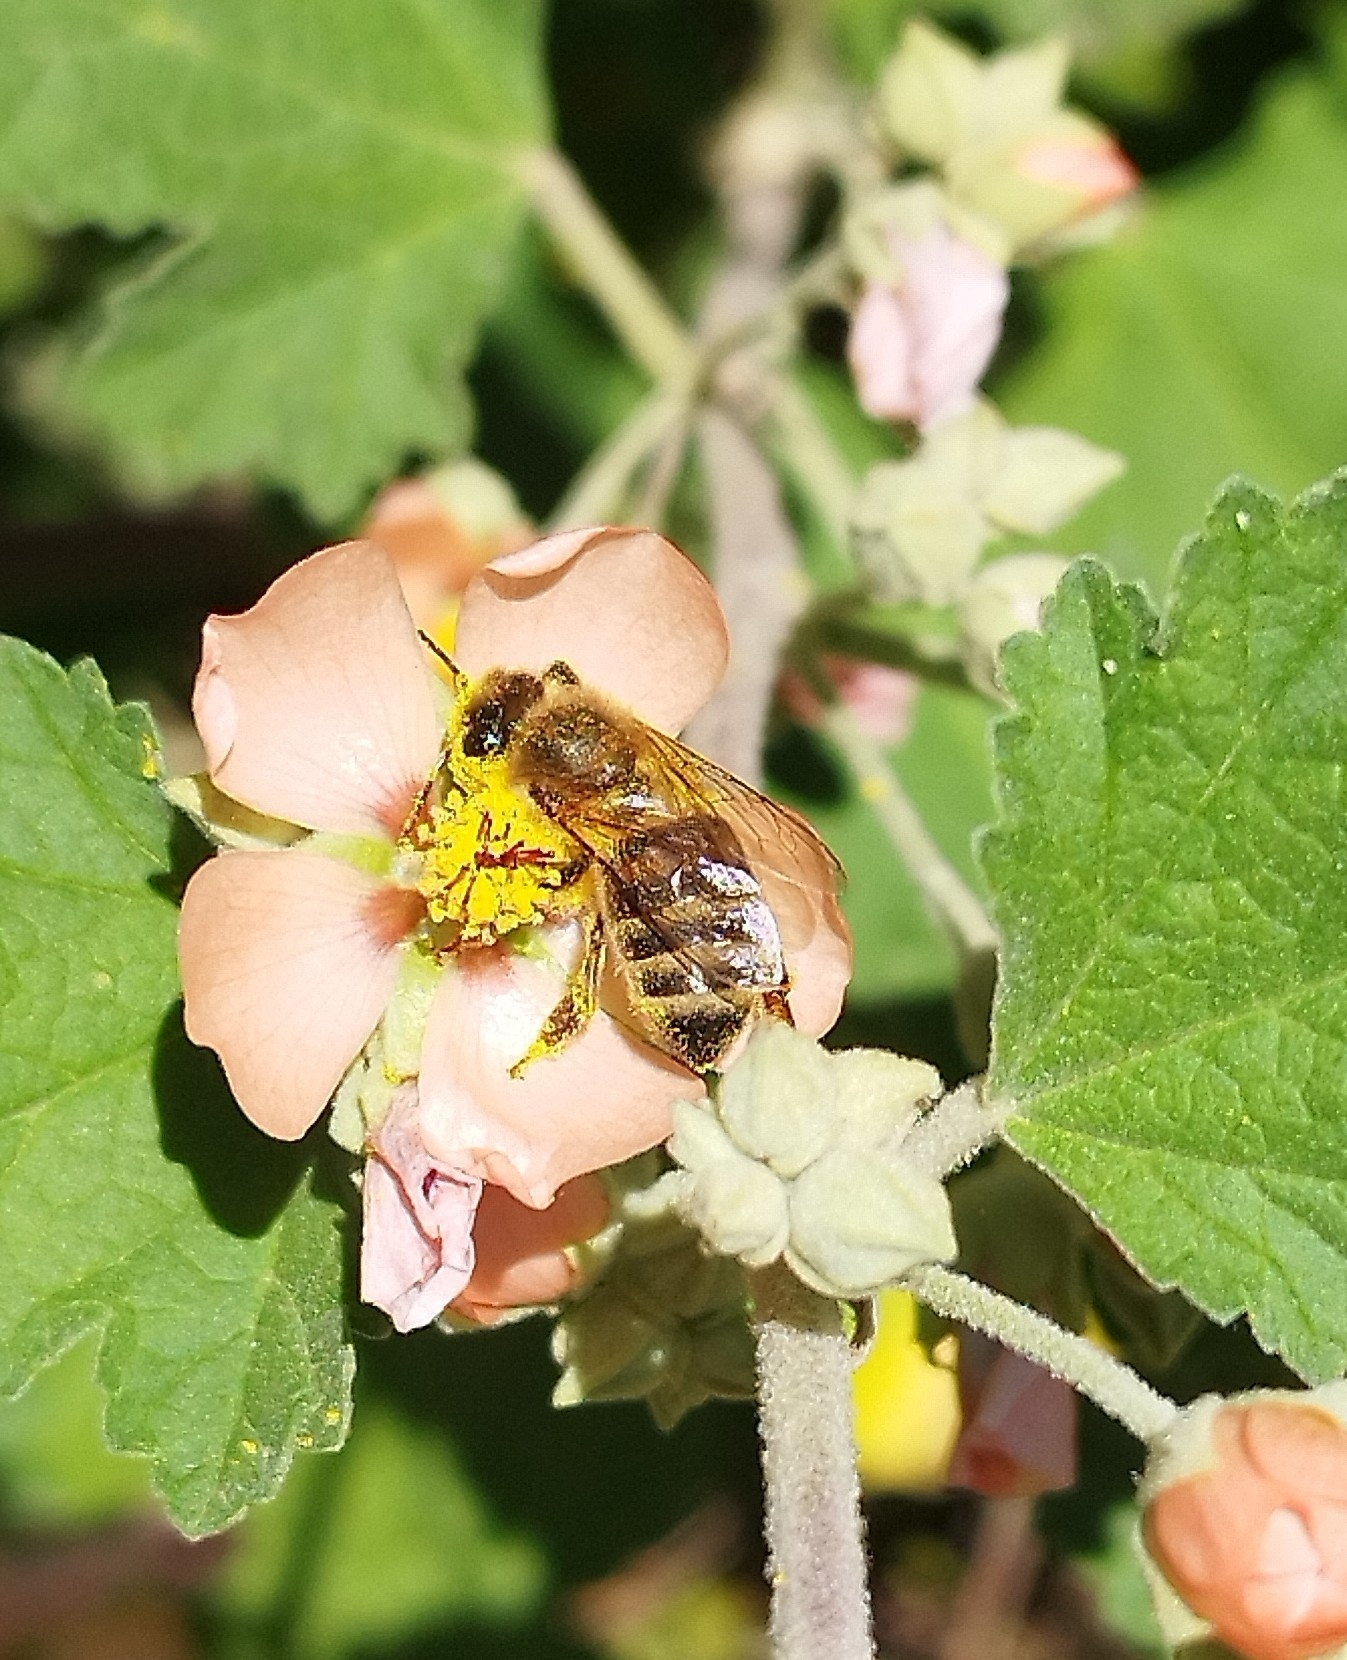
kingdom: Animalia
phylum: Arthropoda
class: Insecta
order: Hymenoptera
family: Apidae
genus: Apis
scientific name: Apis mellifera
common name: Honey bee
